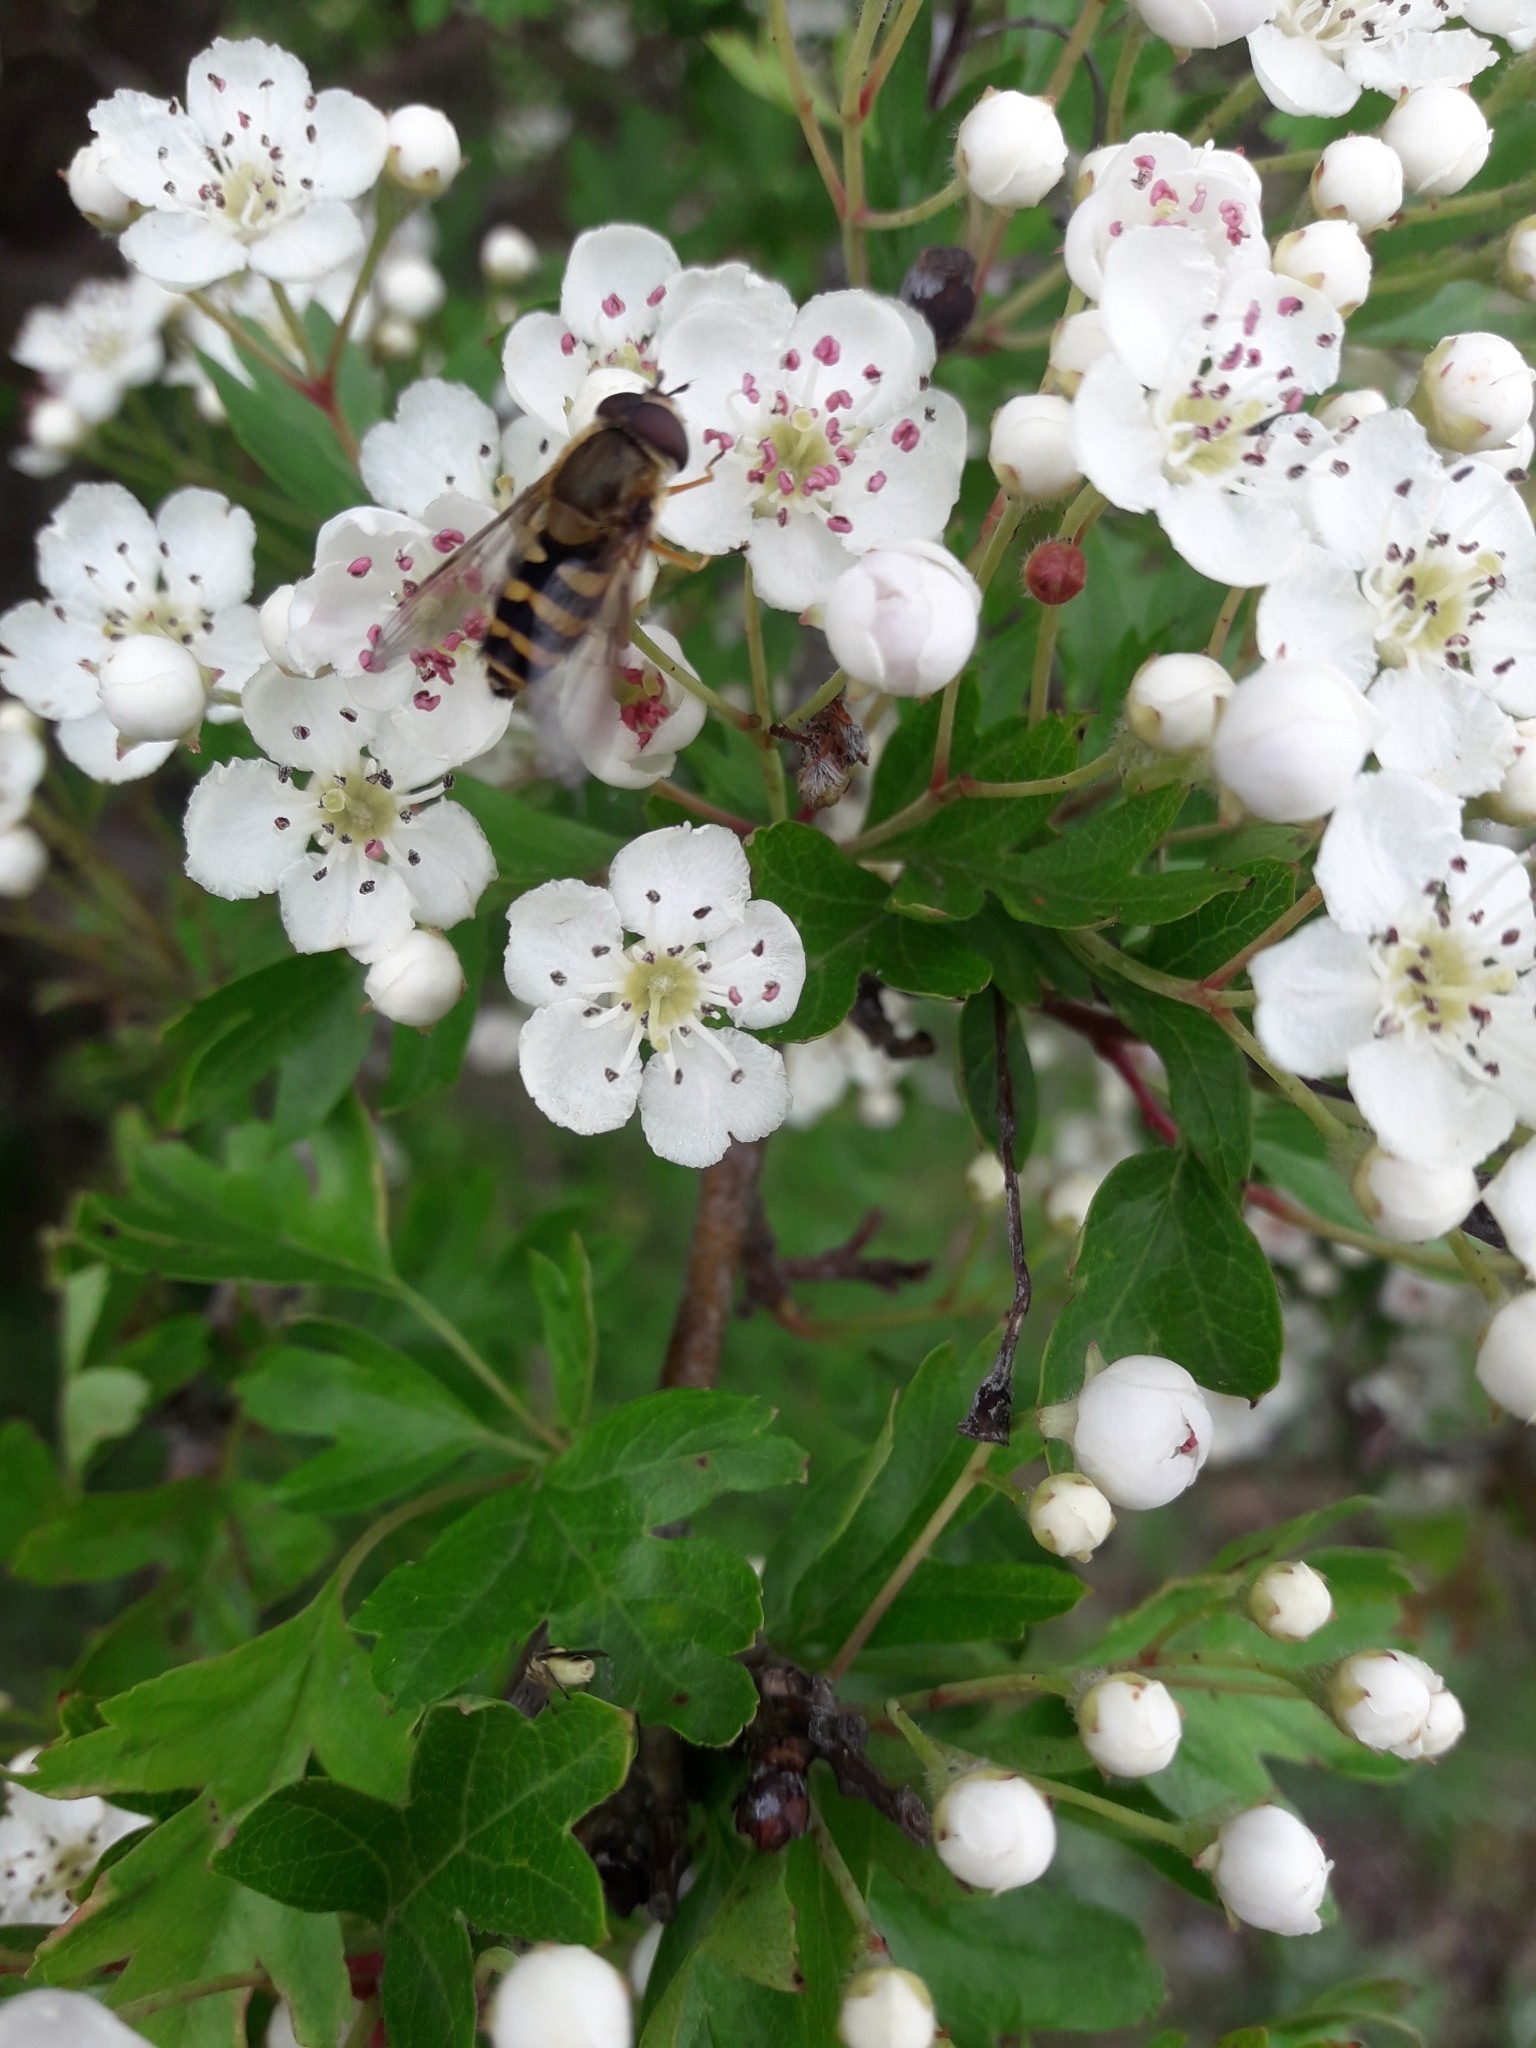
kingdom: Animalia
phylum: Arthropoda
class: Insecta
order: Diptera
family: Syrphidae
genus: Syrphus
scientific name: Syrphus
